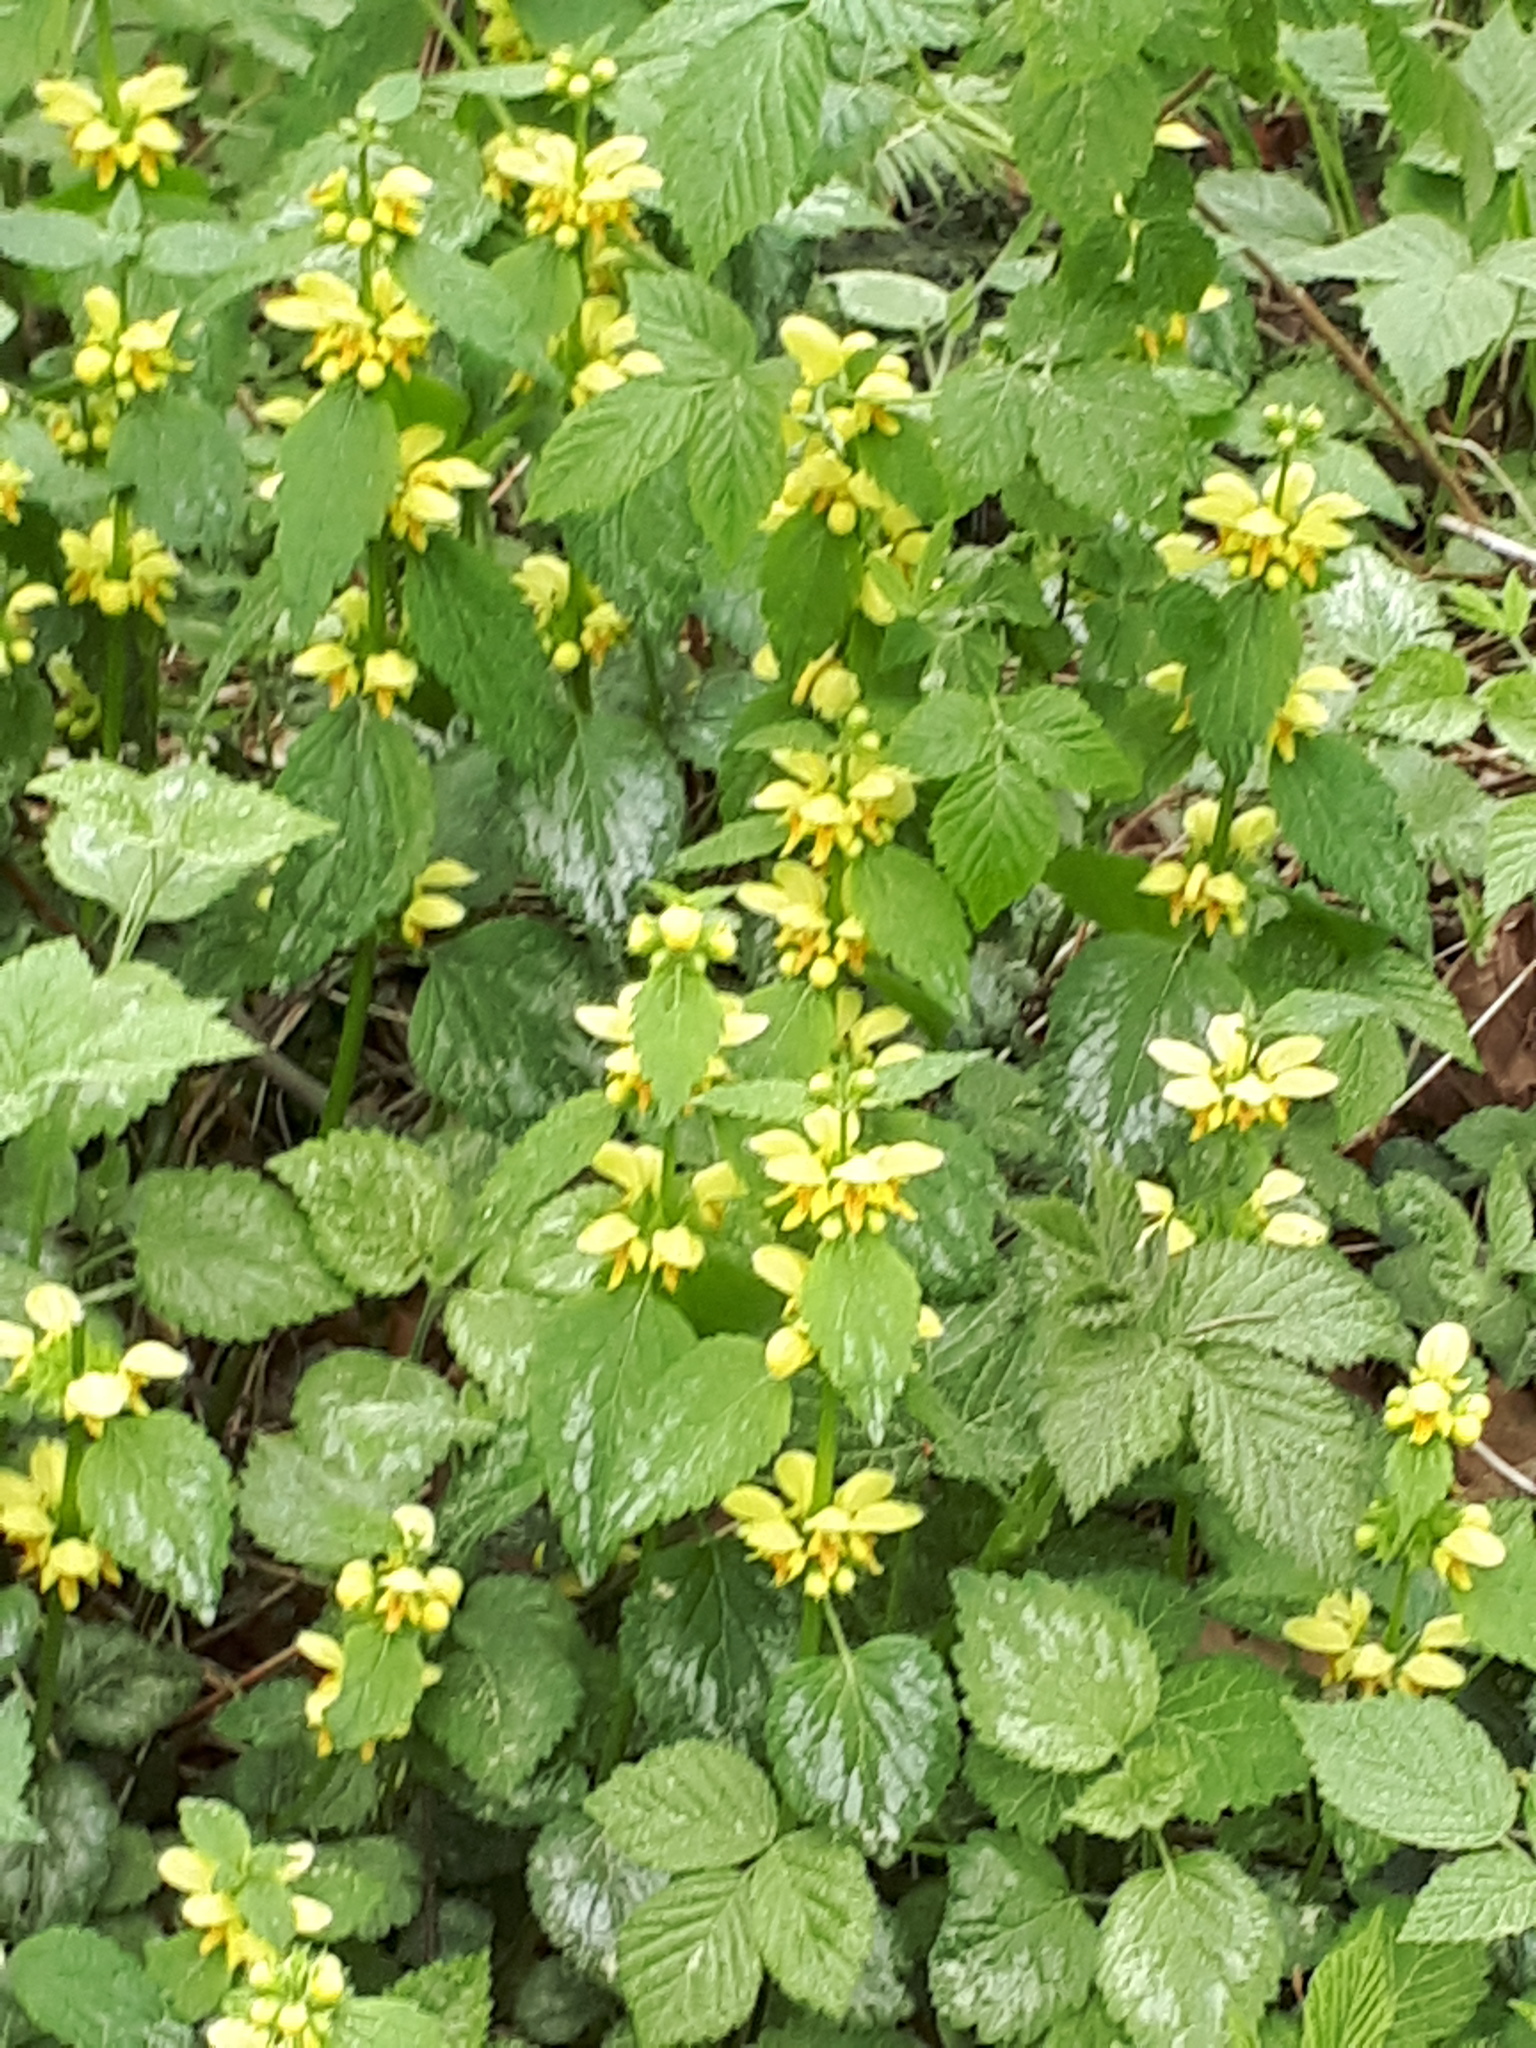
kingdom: Plantae
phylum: Tracheophyta
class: Magnoliopsida
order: Lamiales
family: Lamiaceae
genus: Lamium
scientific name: Lamium galeobdolon
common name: Yellow archangel
